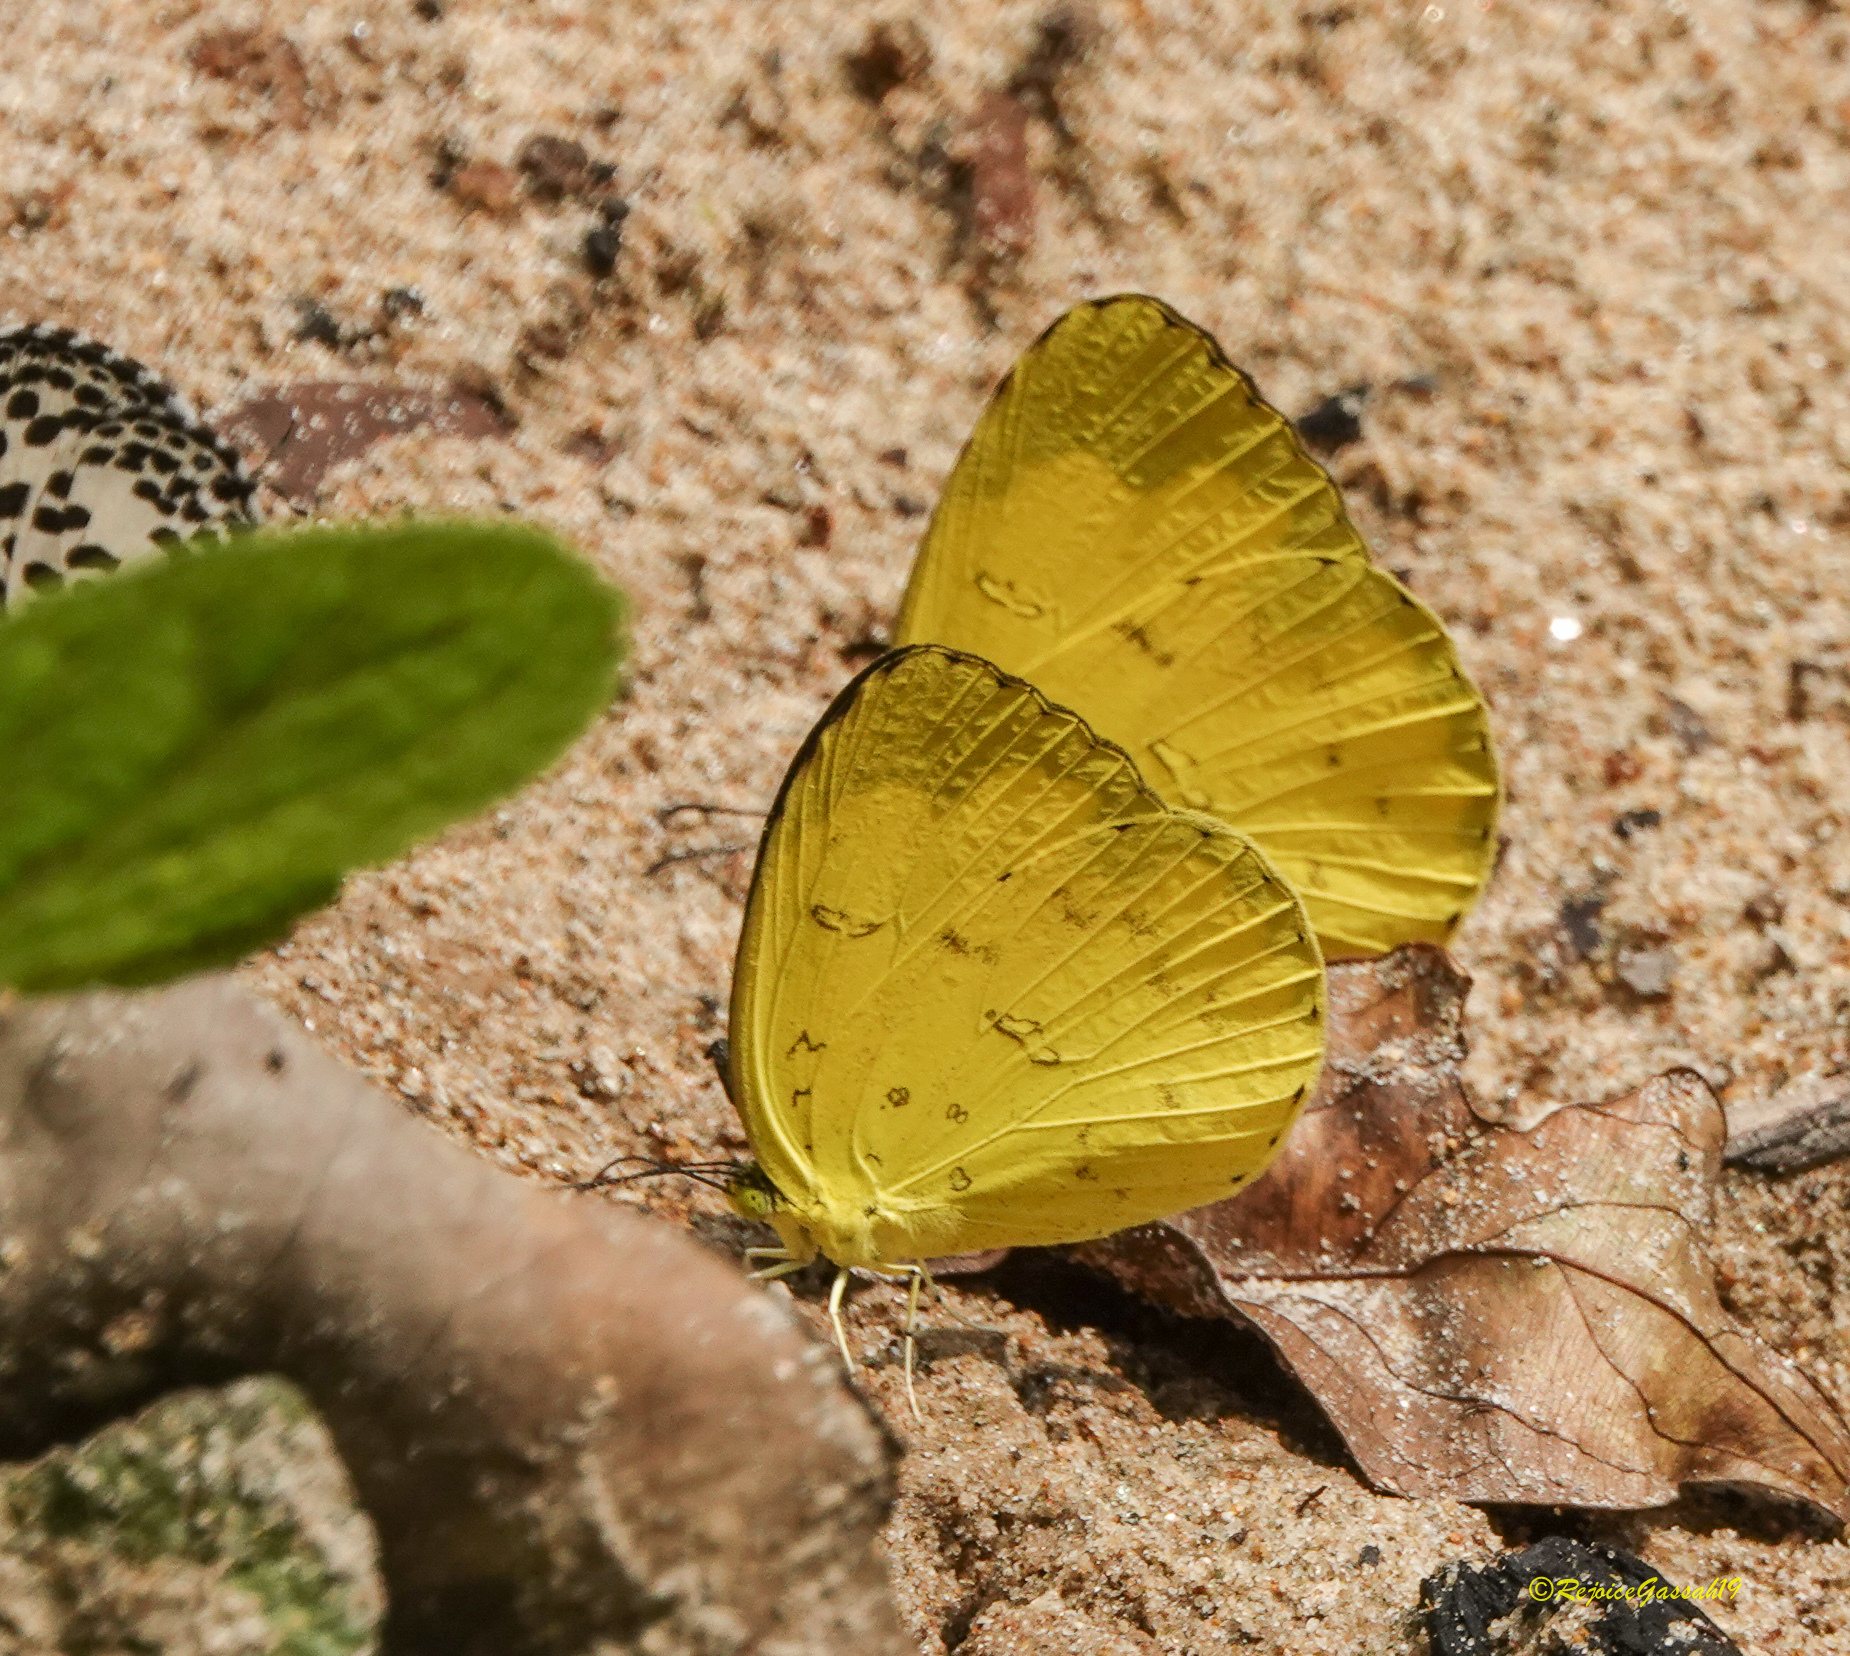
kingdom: Animalia
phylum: Arthropoda
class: Insecta
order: Lepidoptera
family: Pieridae
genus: Eurema
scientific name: Eurema blanda
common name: Three-spot grass yellow
